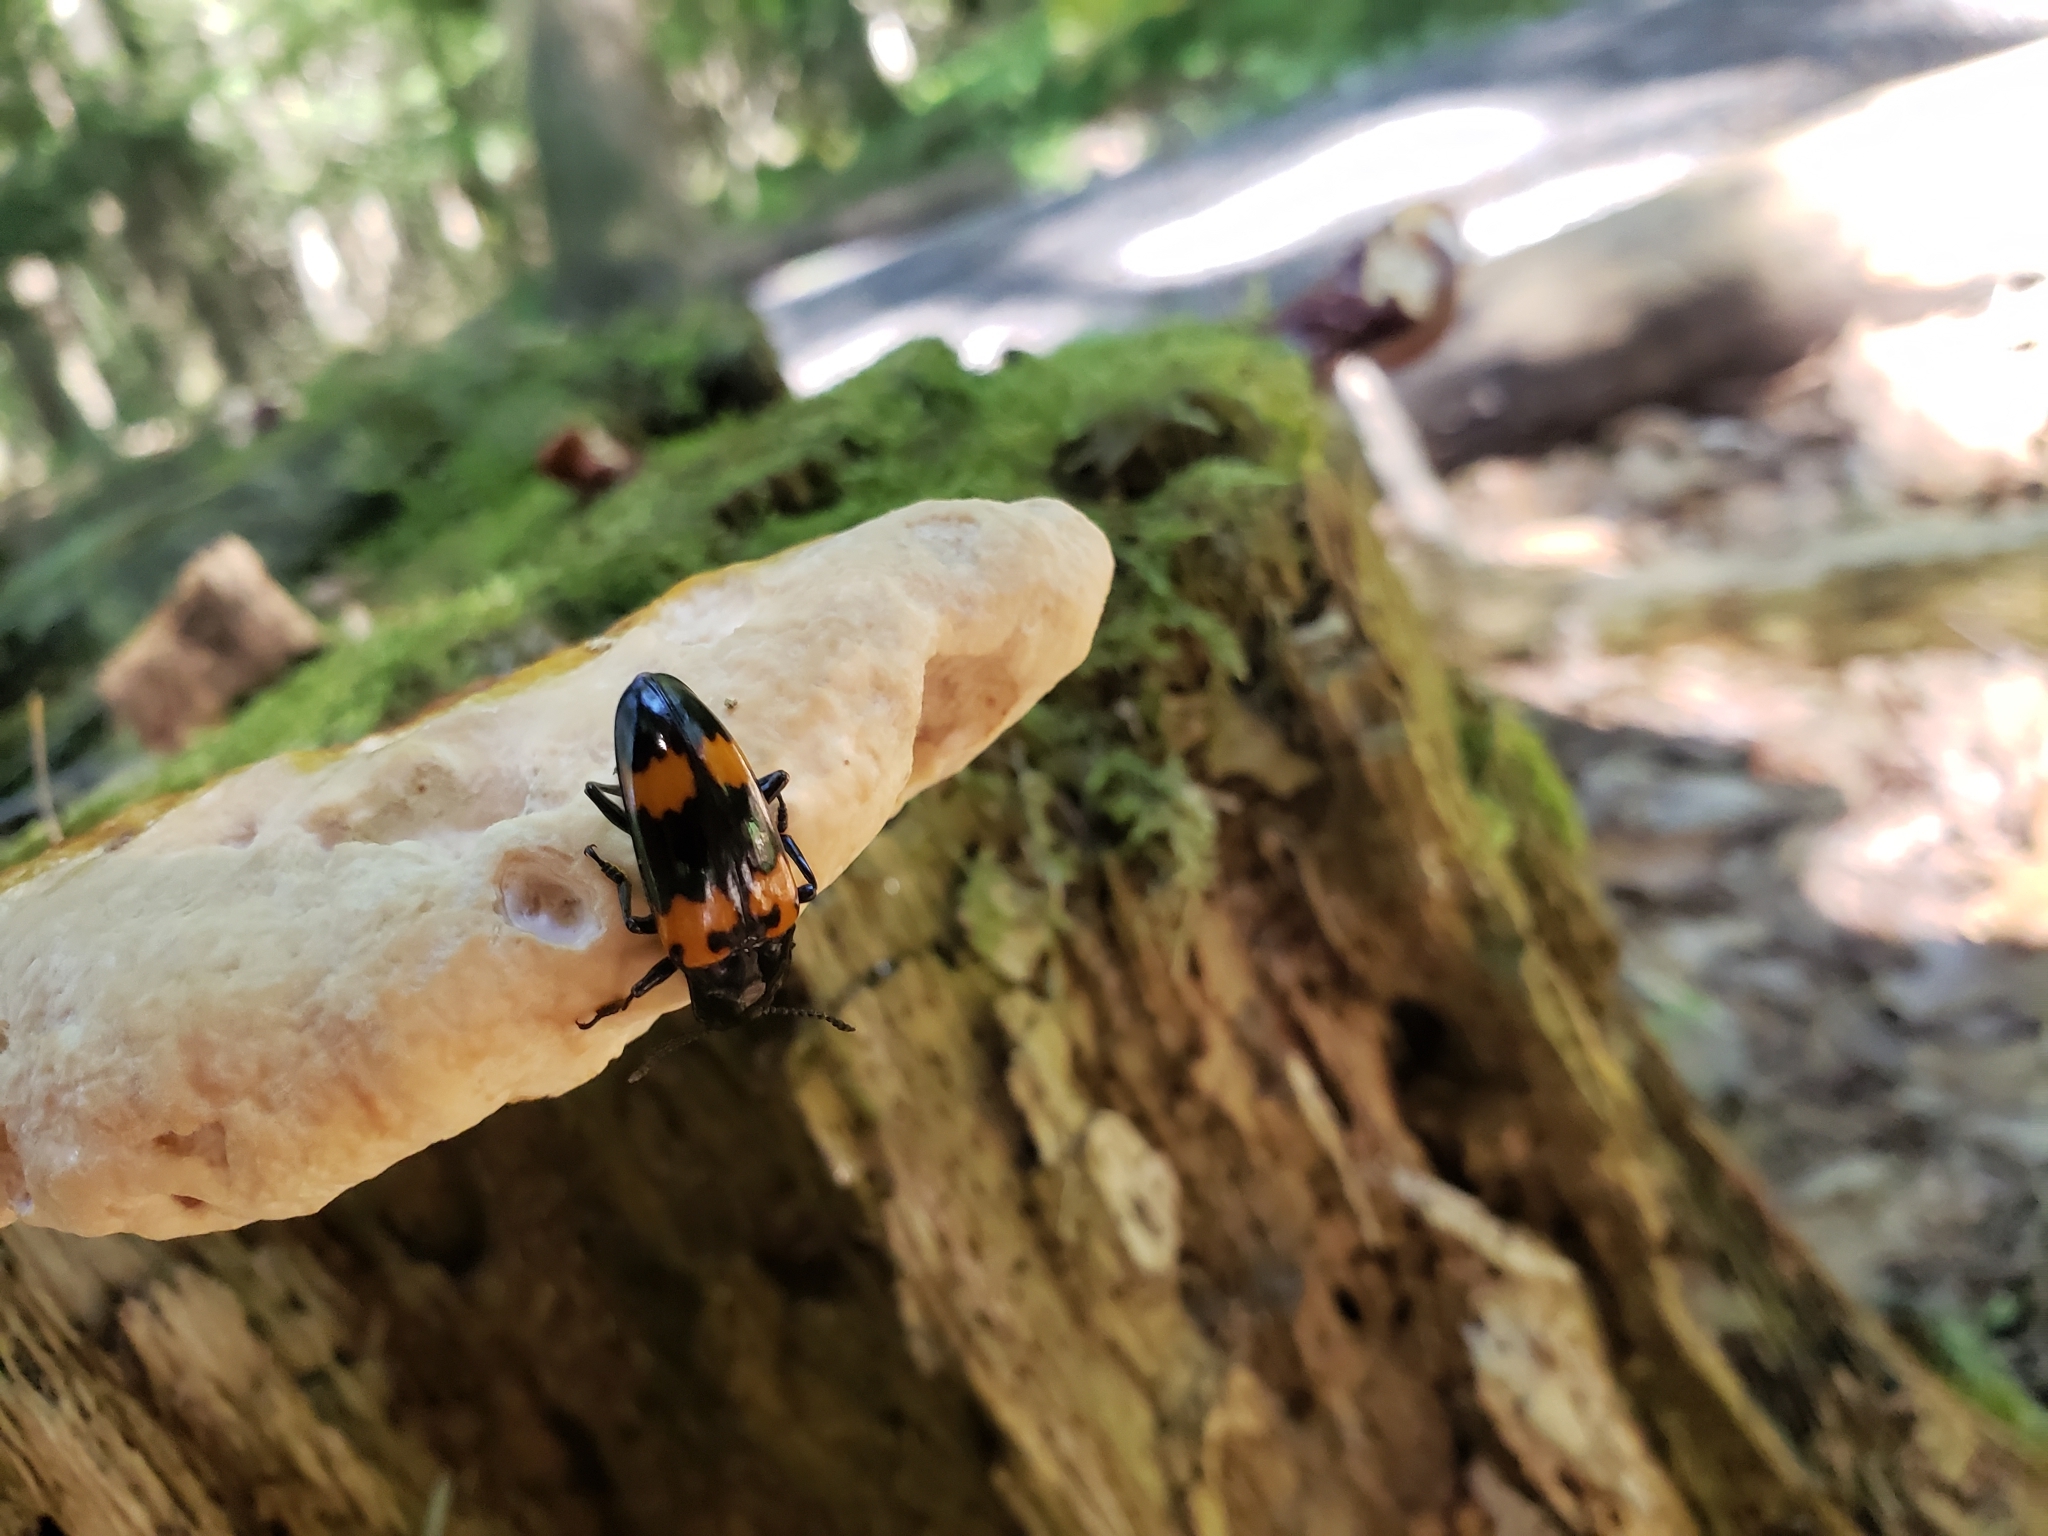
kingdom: Fungi
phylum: Basidiomycota
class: Agaricomycetes
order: Polyporales
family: Polyporaceae
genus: Ganoderma
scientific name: Ganoderma tsugae
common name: Hemlock varnish shelf
